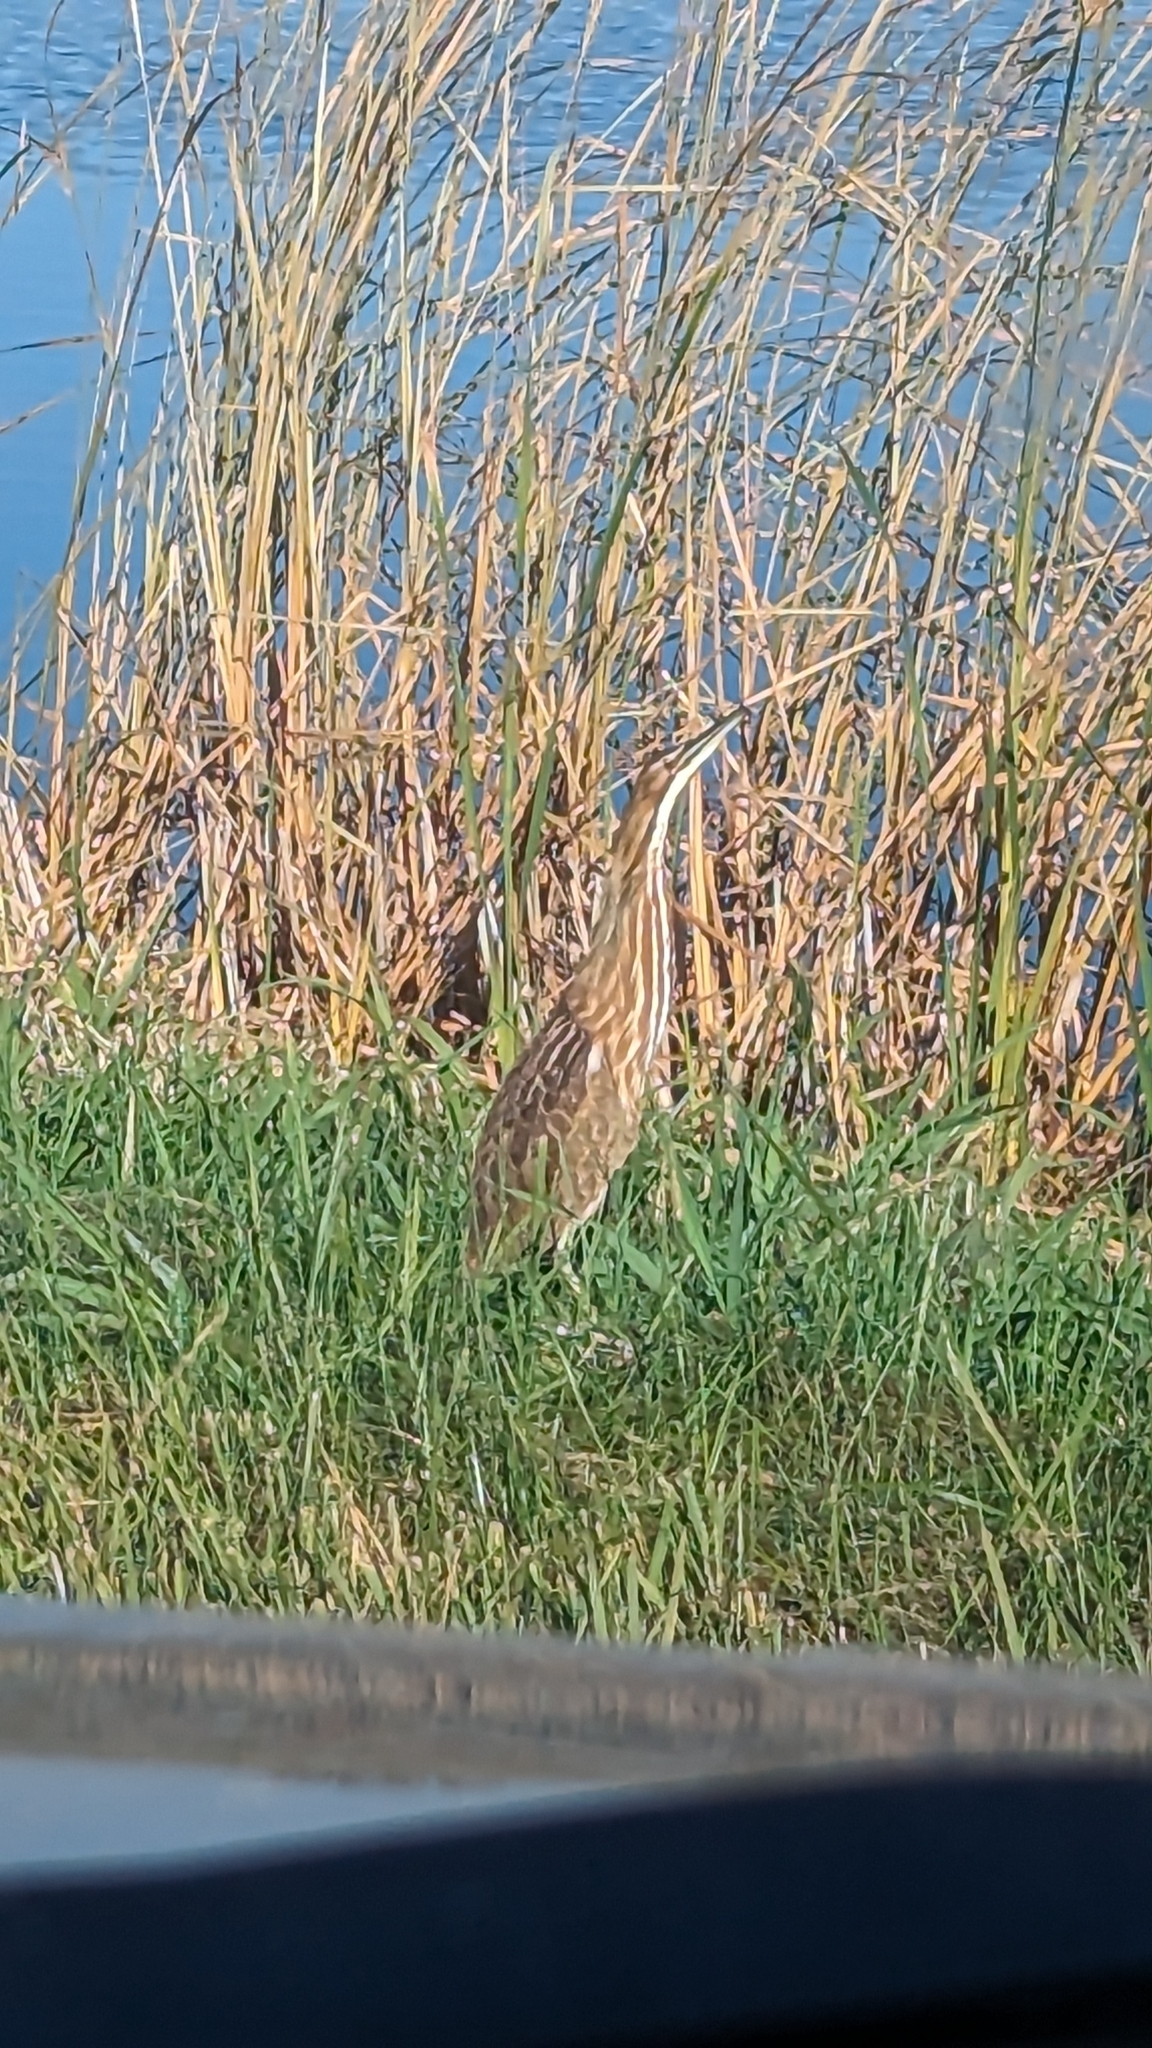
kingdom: Animalia
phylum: Chordata
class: Aves
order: Pelecaniformes
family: Ardeidae
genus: Botaurus
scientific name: Botaurus lentiginosus
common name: American bittern
